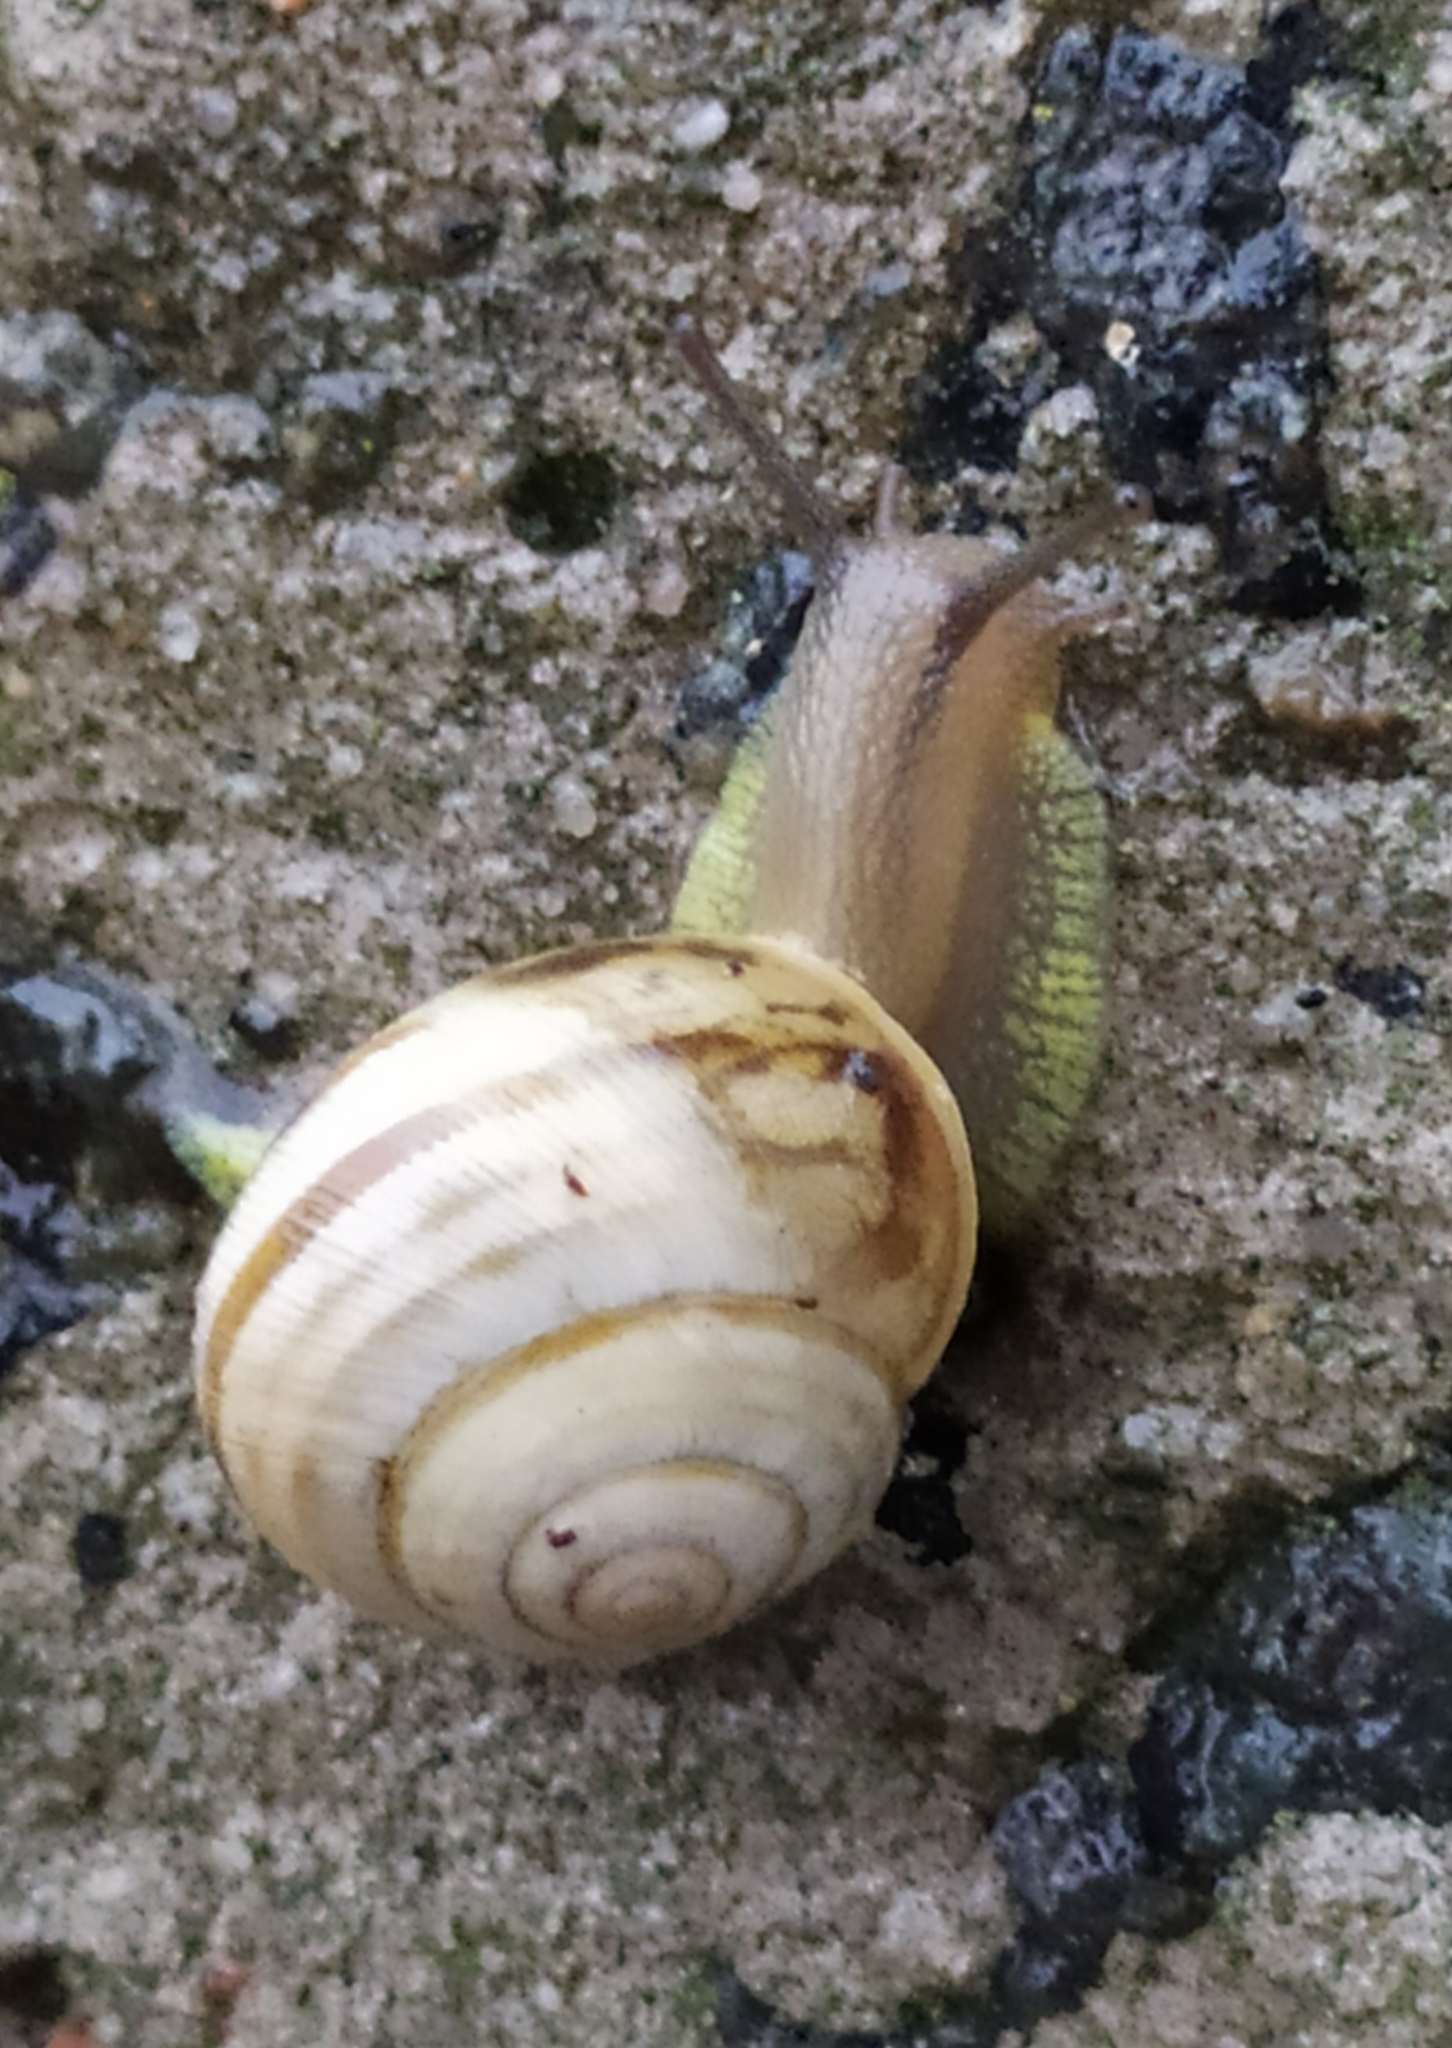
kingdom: Animalia
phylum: Mollusca
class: Gastropoda
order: Stylommatophora
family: Helicidae
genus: Caucasotachea
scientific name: Caucasotachea vindobonensis
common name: European helicid land snail
